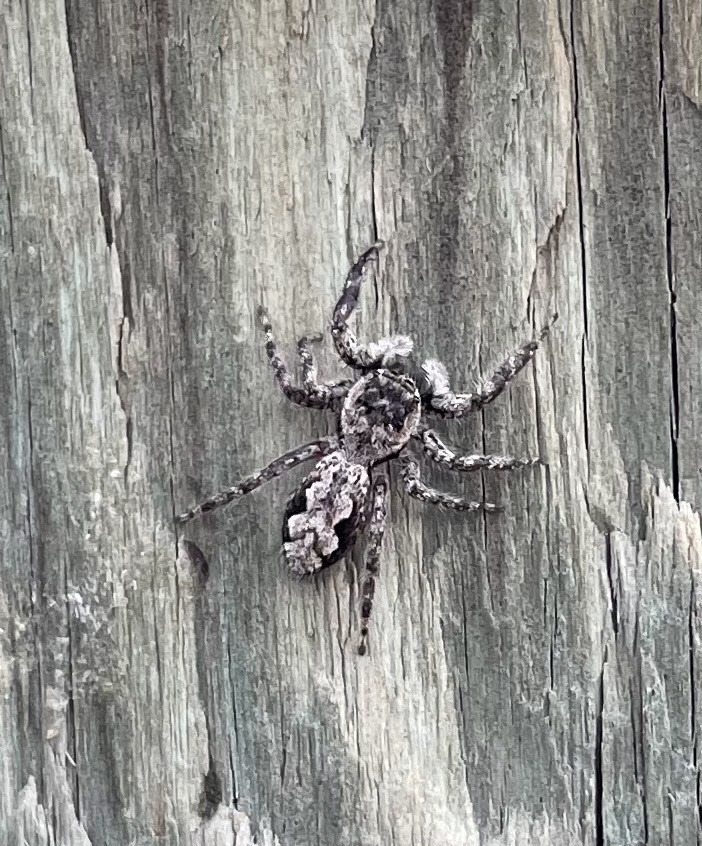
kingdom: Animalia
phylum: Arthropoda
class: Arachnida
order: Araneae
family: Salticidae
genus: Platycryptus
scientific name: Platycryptus undatus
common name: Tan jumping spider
